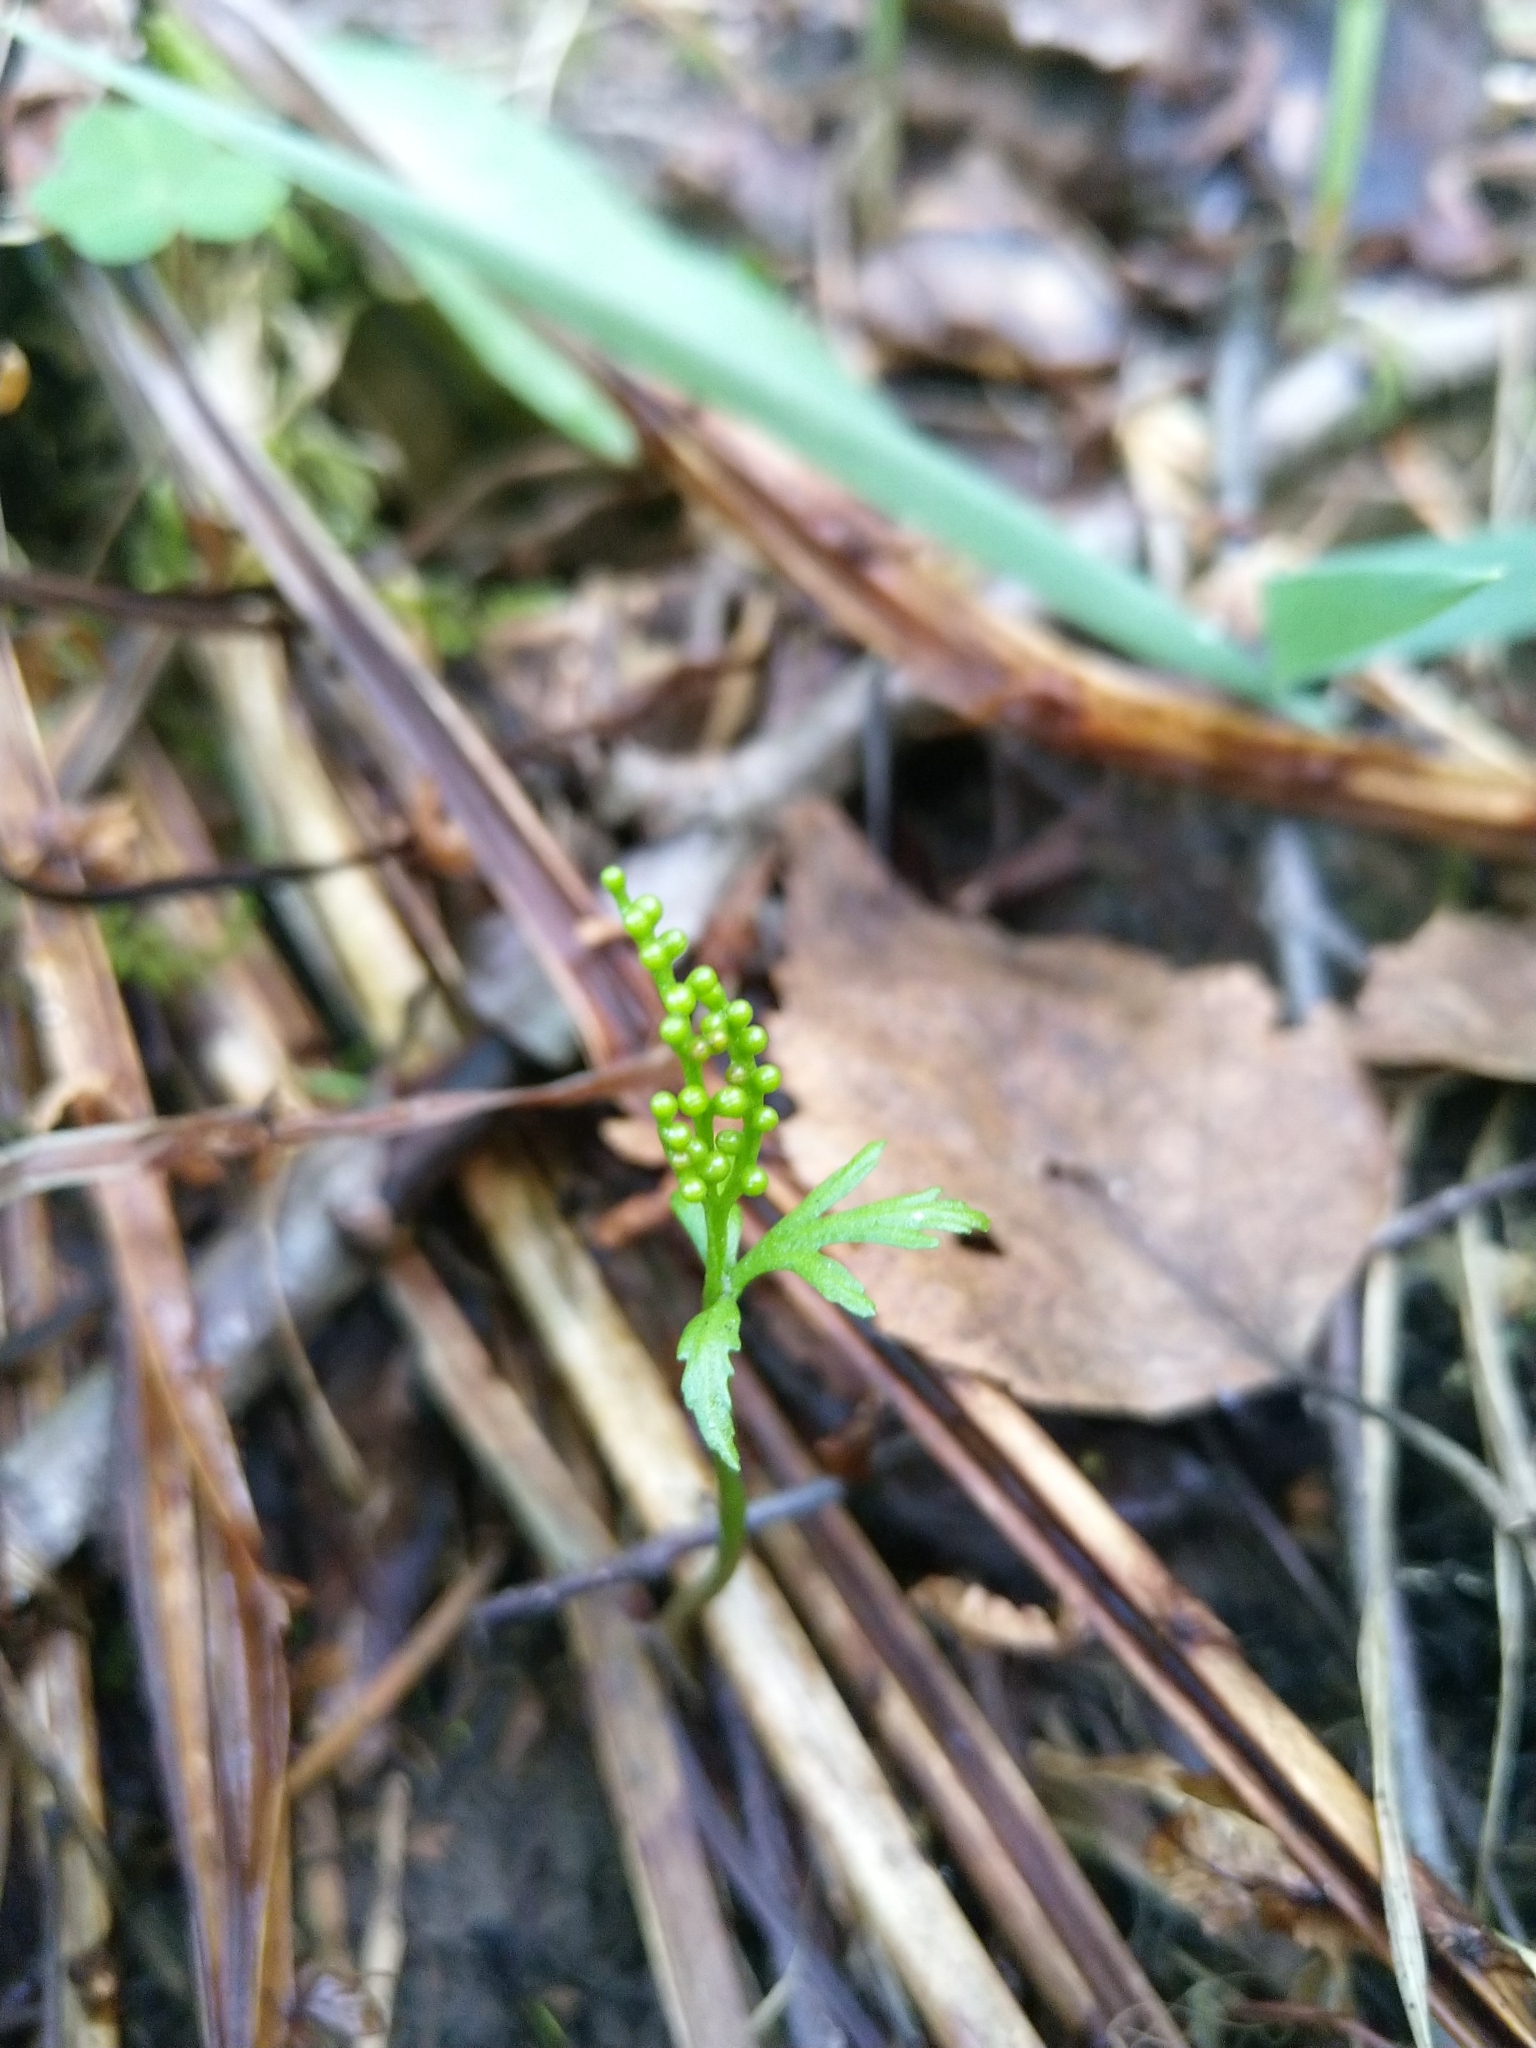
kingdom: Plantae
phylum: Tracheophyta
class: Polypodiopsida
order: Ophioglossales
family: Ophioglossaceae
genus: Botrychium
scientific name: Botrychium lanceolatum
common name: Lance-leaved moonwort
